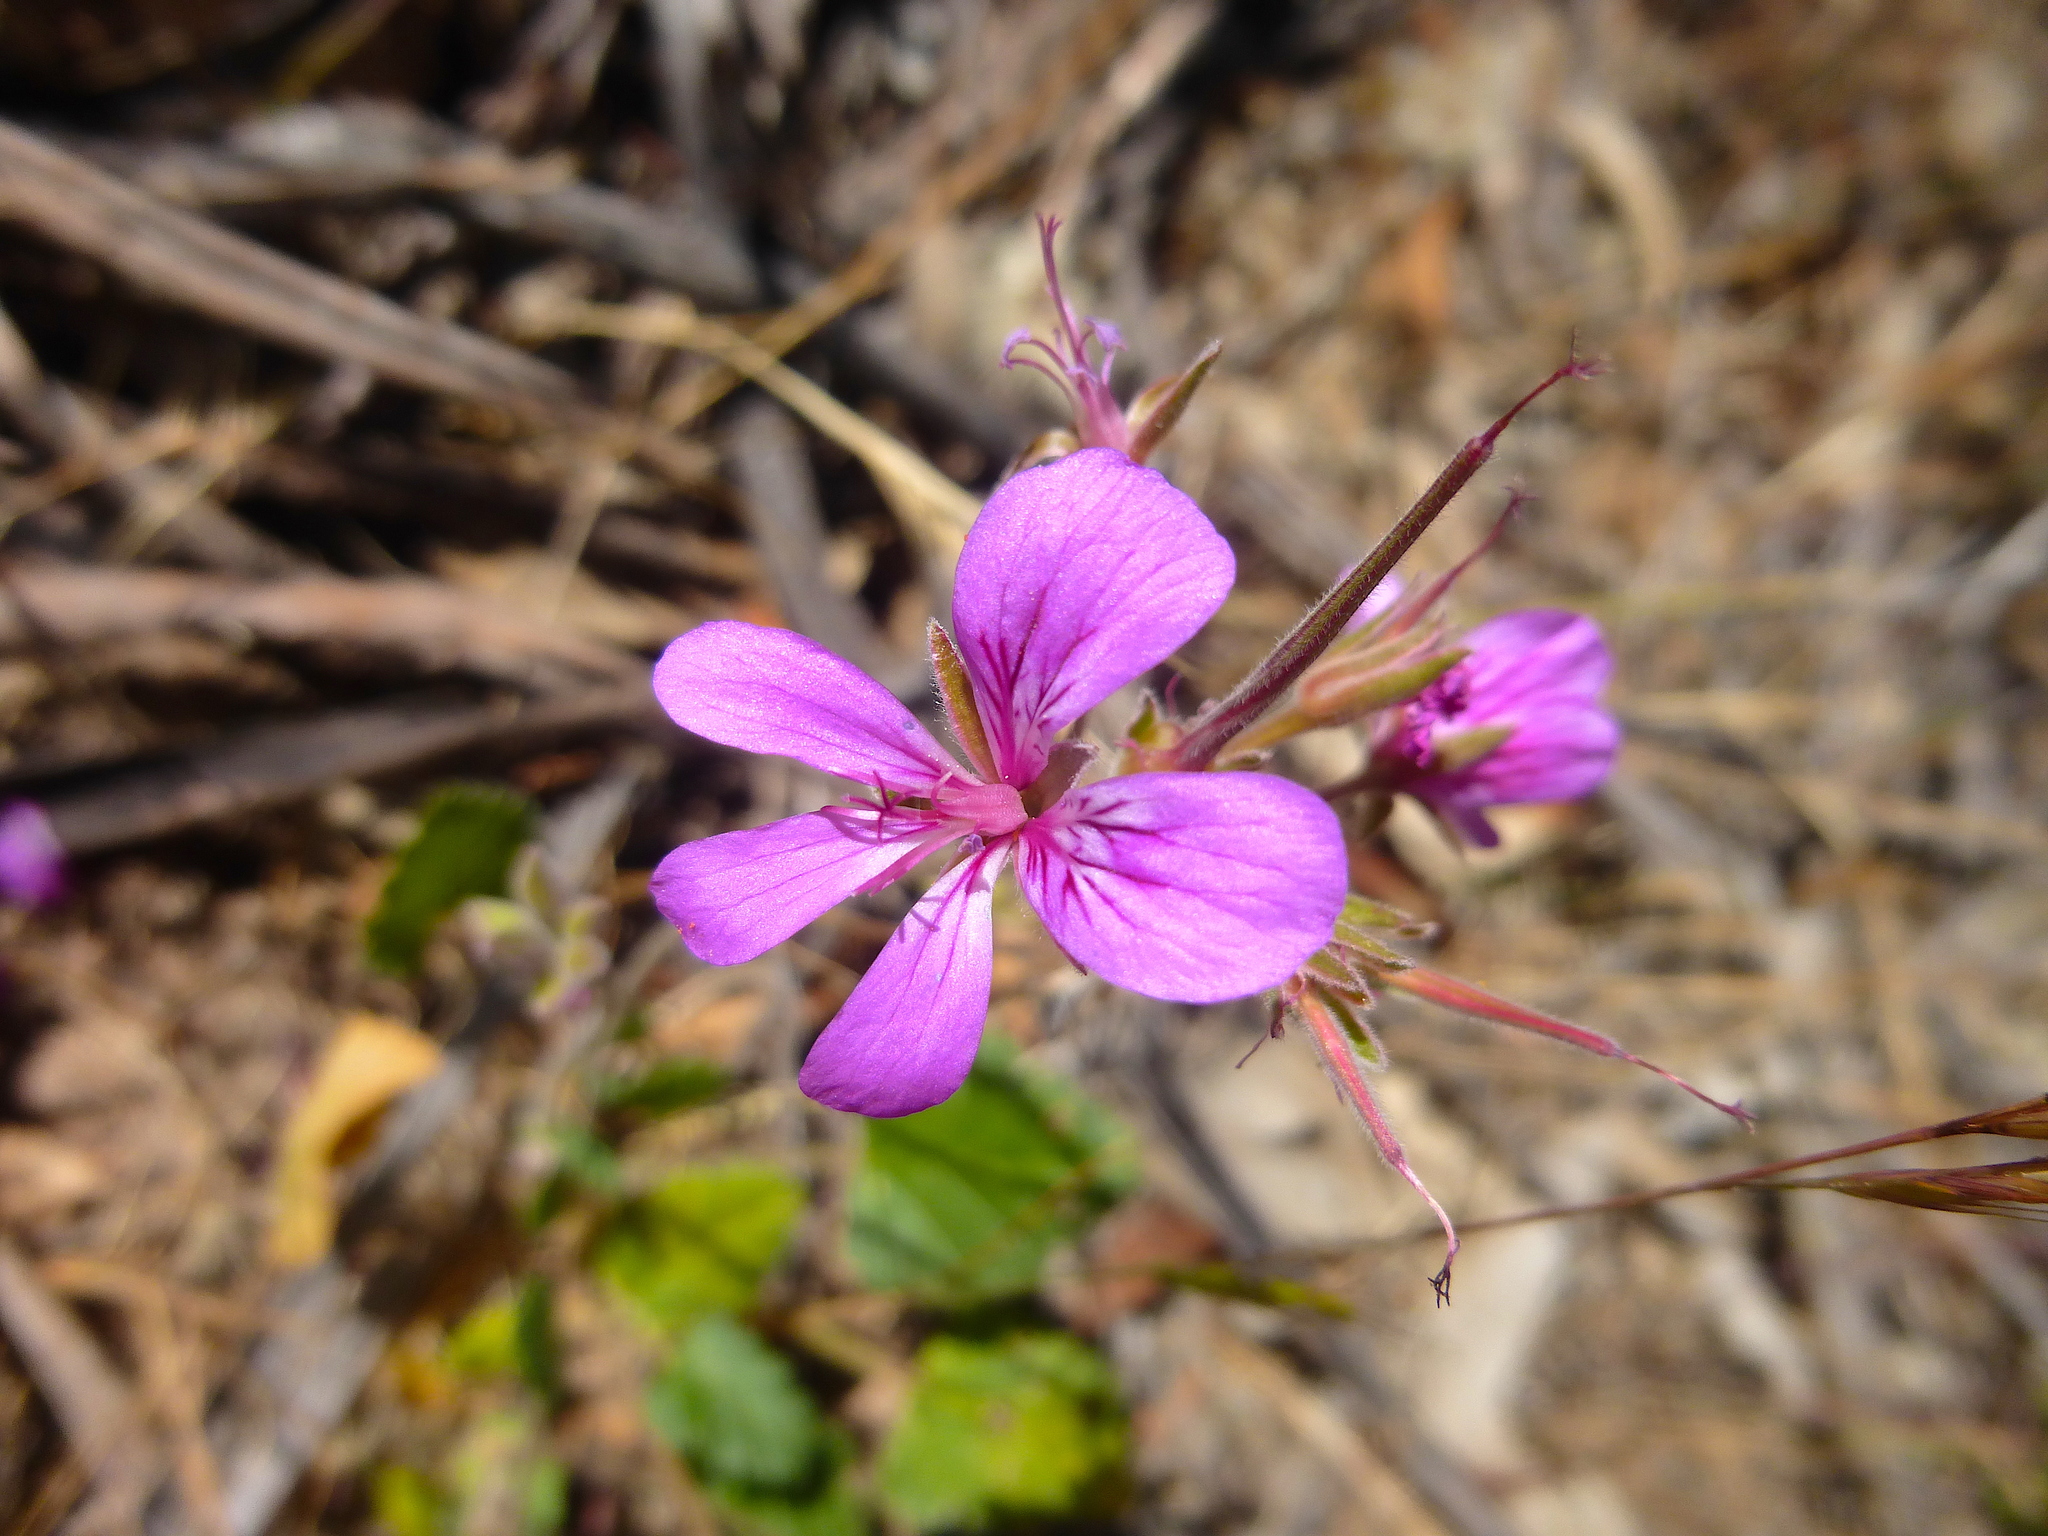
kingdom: Plantae
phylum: Tracheophyta
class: Magnoliopsida
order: Geraniales
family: Geraniaceae
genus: Pelargonium
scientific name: Pelargonium rodneyanum
